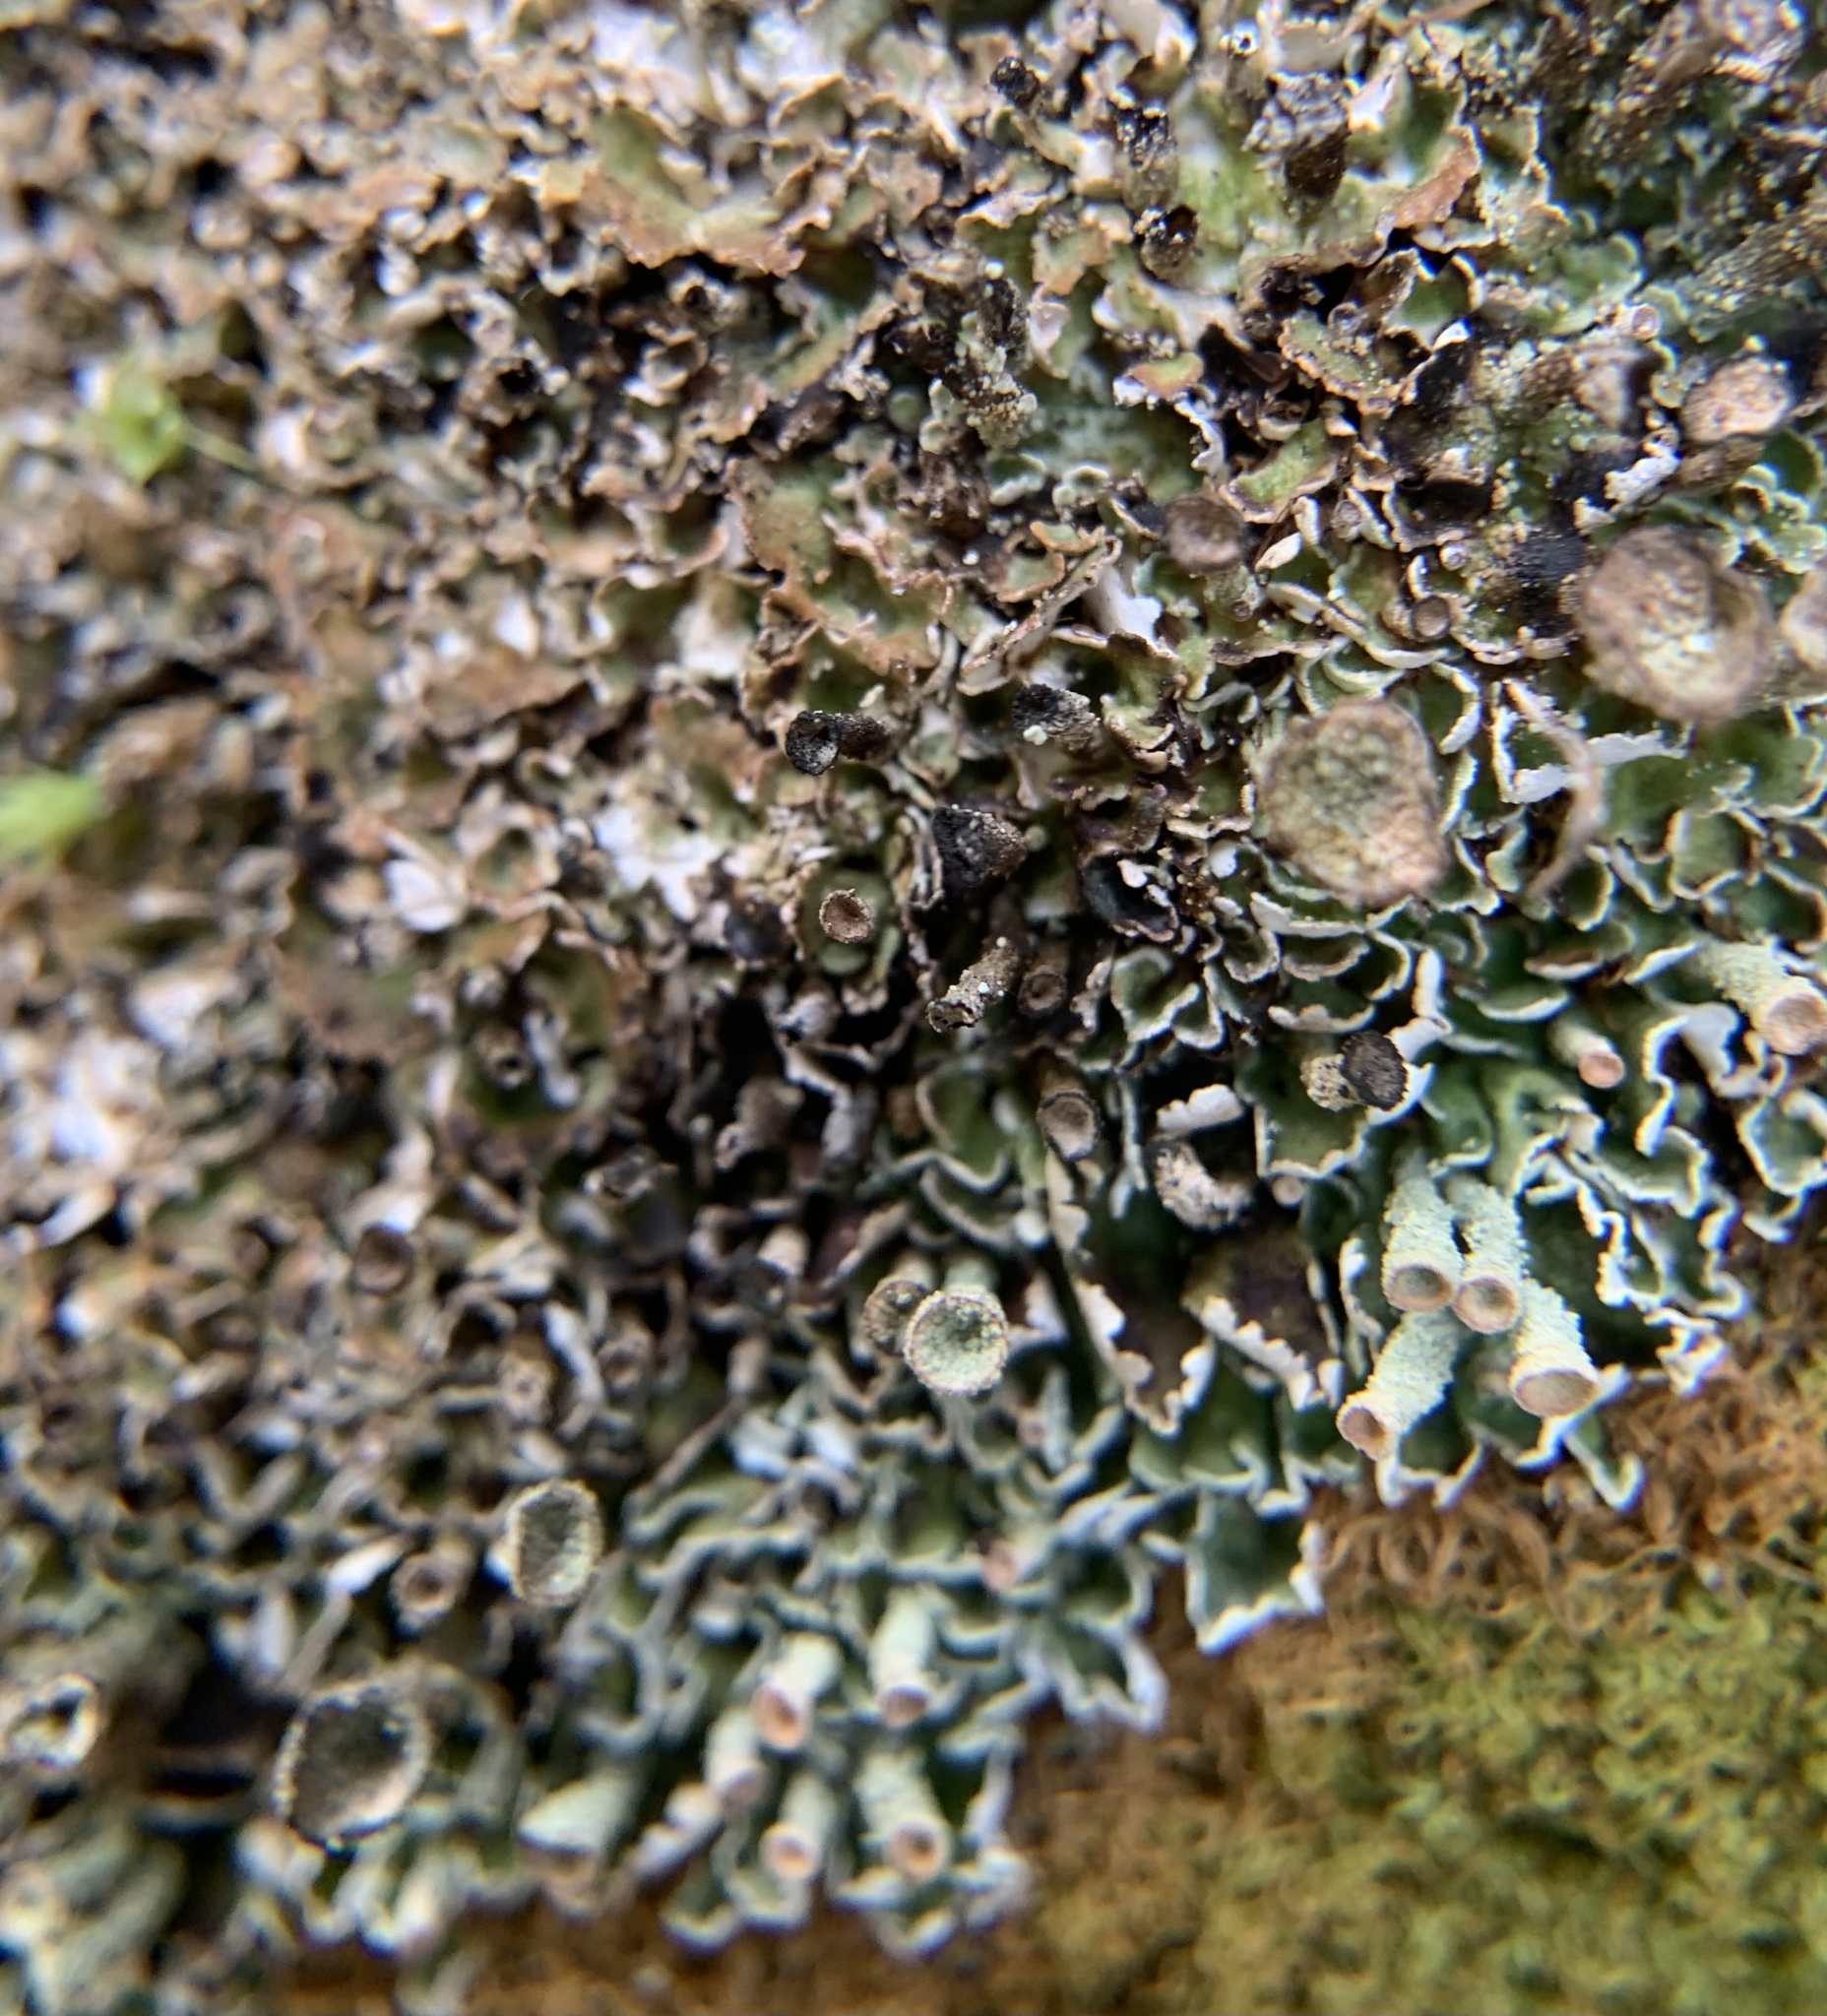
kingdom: Fungi
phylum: Ascomycota
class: Lecanoromycetes
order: Lecanorales
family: Cladoniaceae
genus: Cladonia
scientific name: Cladonia pocillum
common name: Rosette pixie-cup lichen
